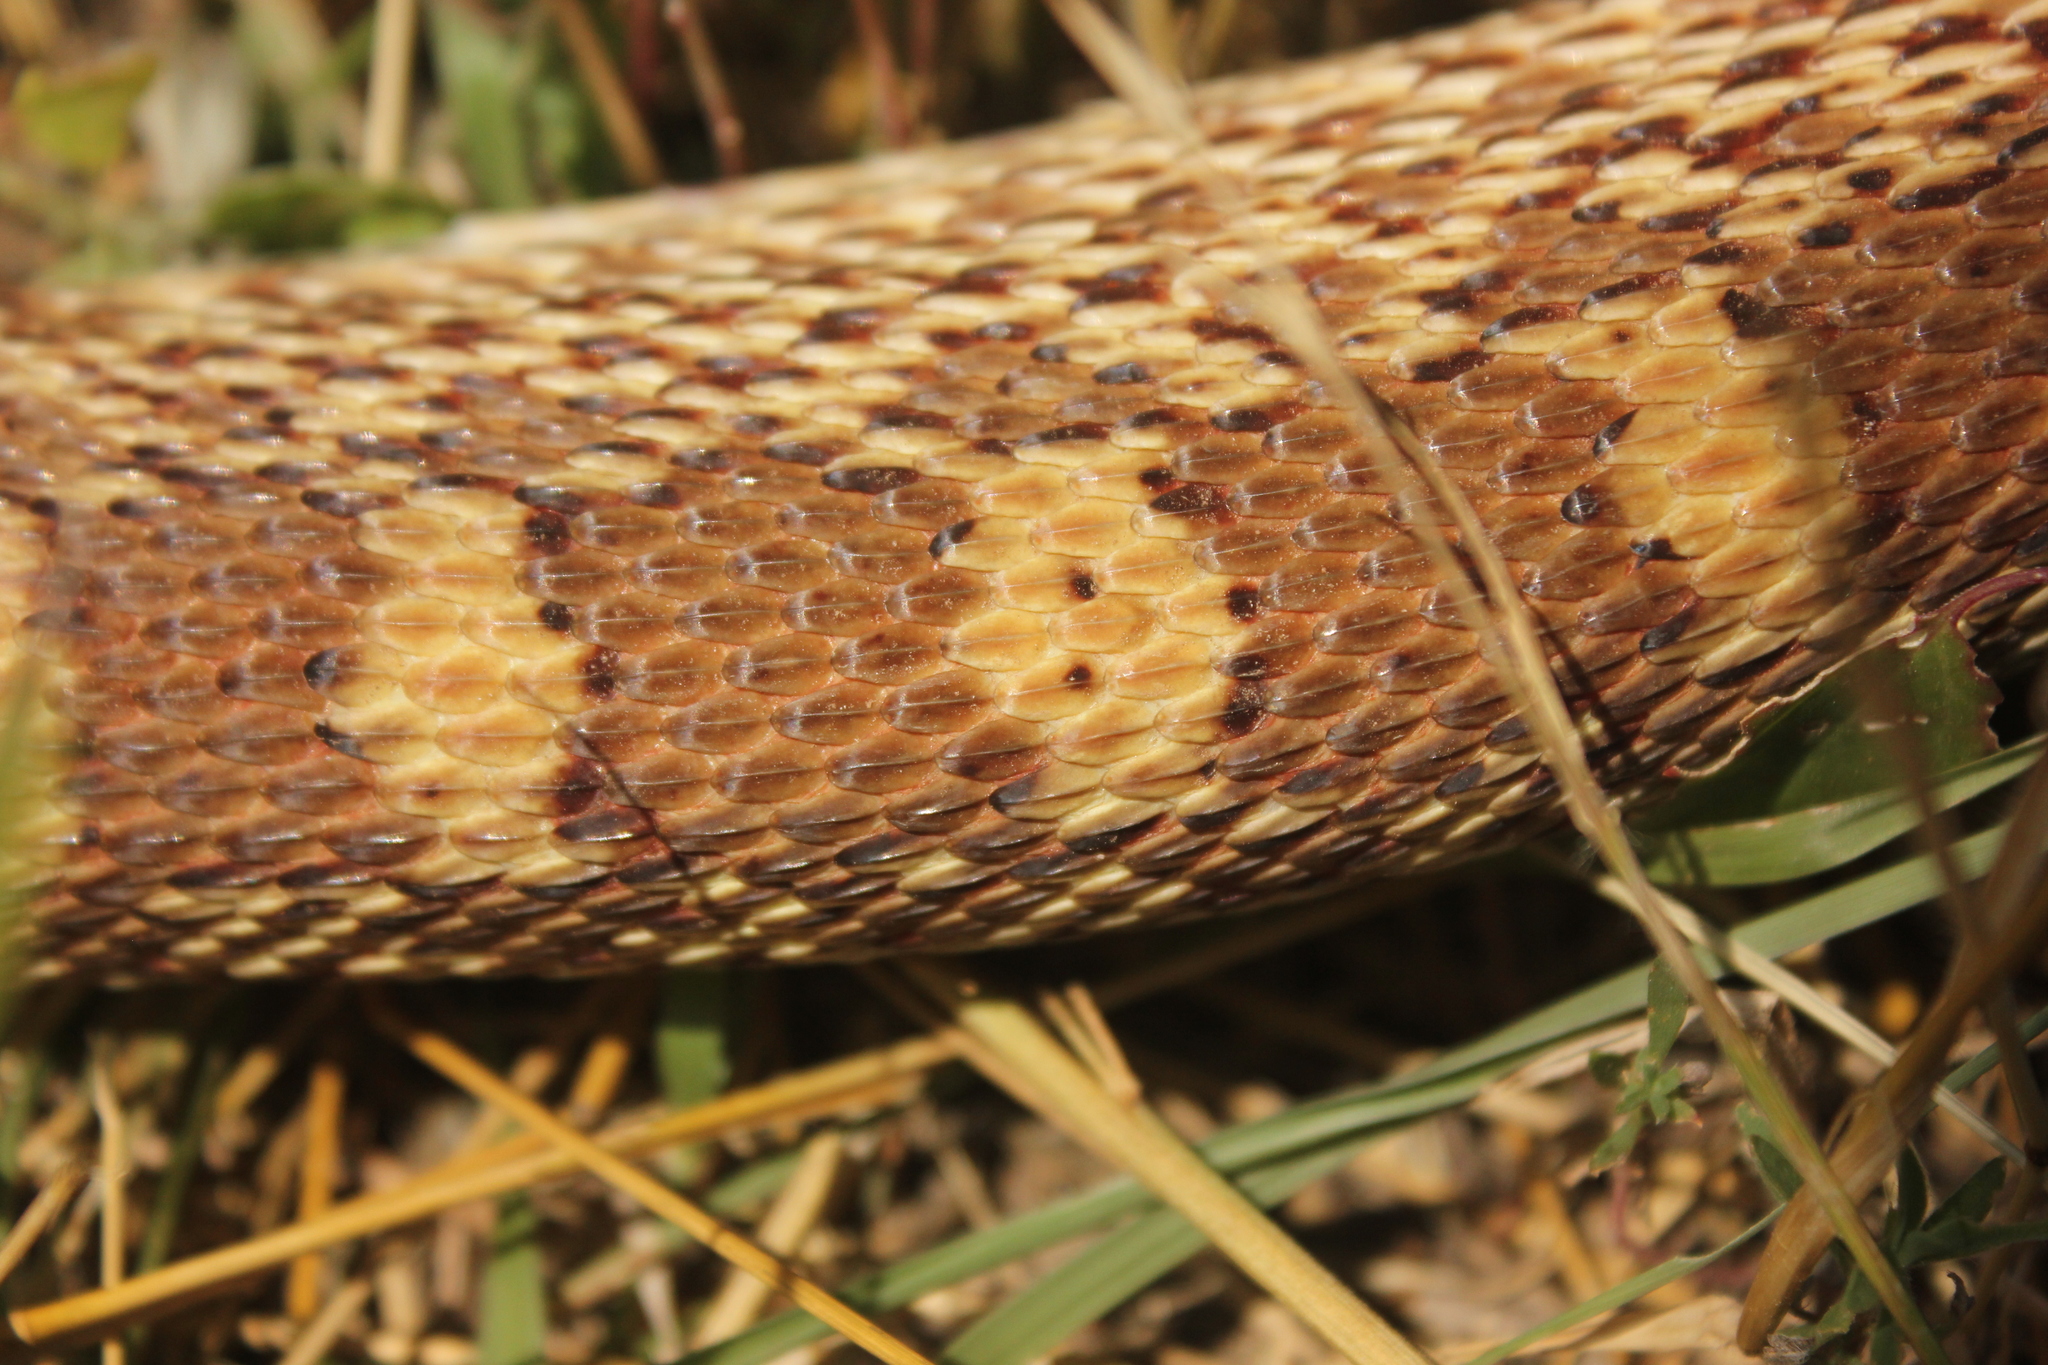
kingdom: Animalia
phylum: Chordata
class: Squamata
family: Colubridae
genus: Pituophis
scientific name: Pituophis catenifer
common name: Gopher snake
